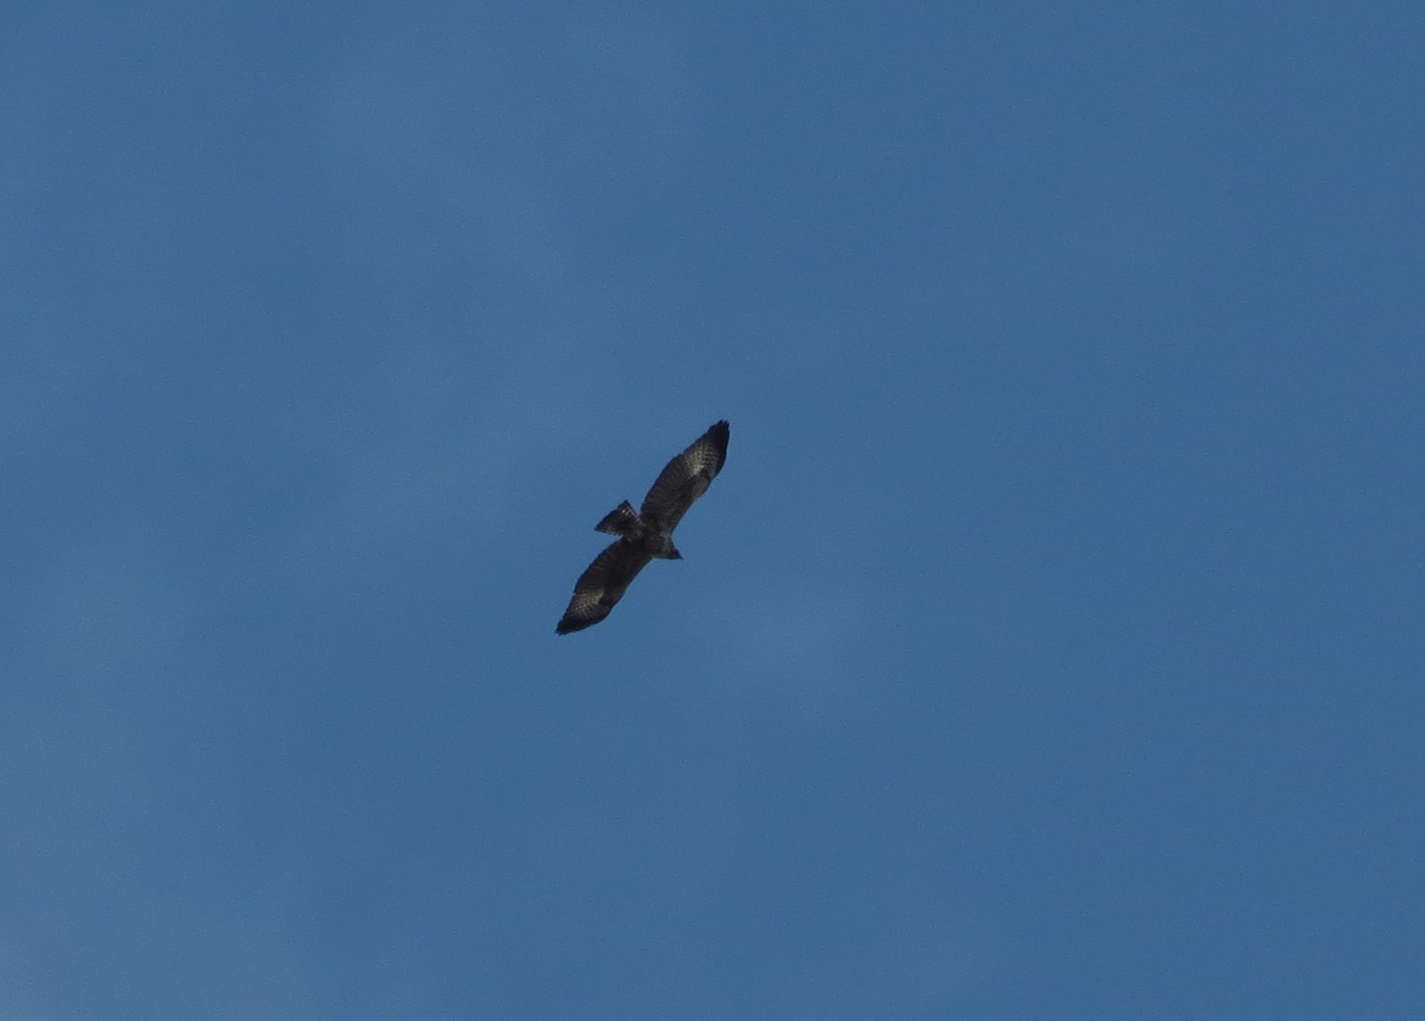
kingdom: Animalia
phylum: Chordata
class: Aves
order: Accipitriformes
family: Accipitridae
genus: Buteogallus
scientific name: Buteogallus anthracinus
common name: Common black hawk
